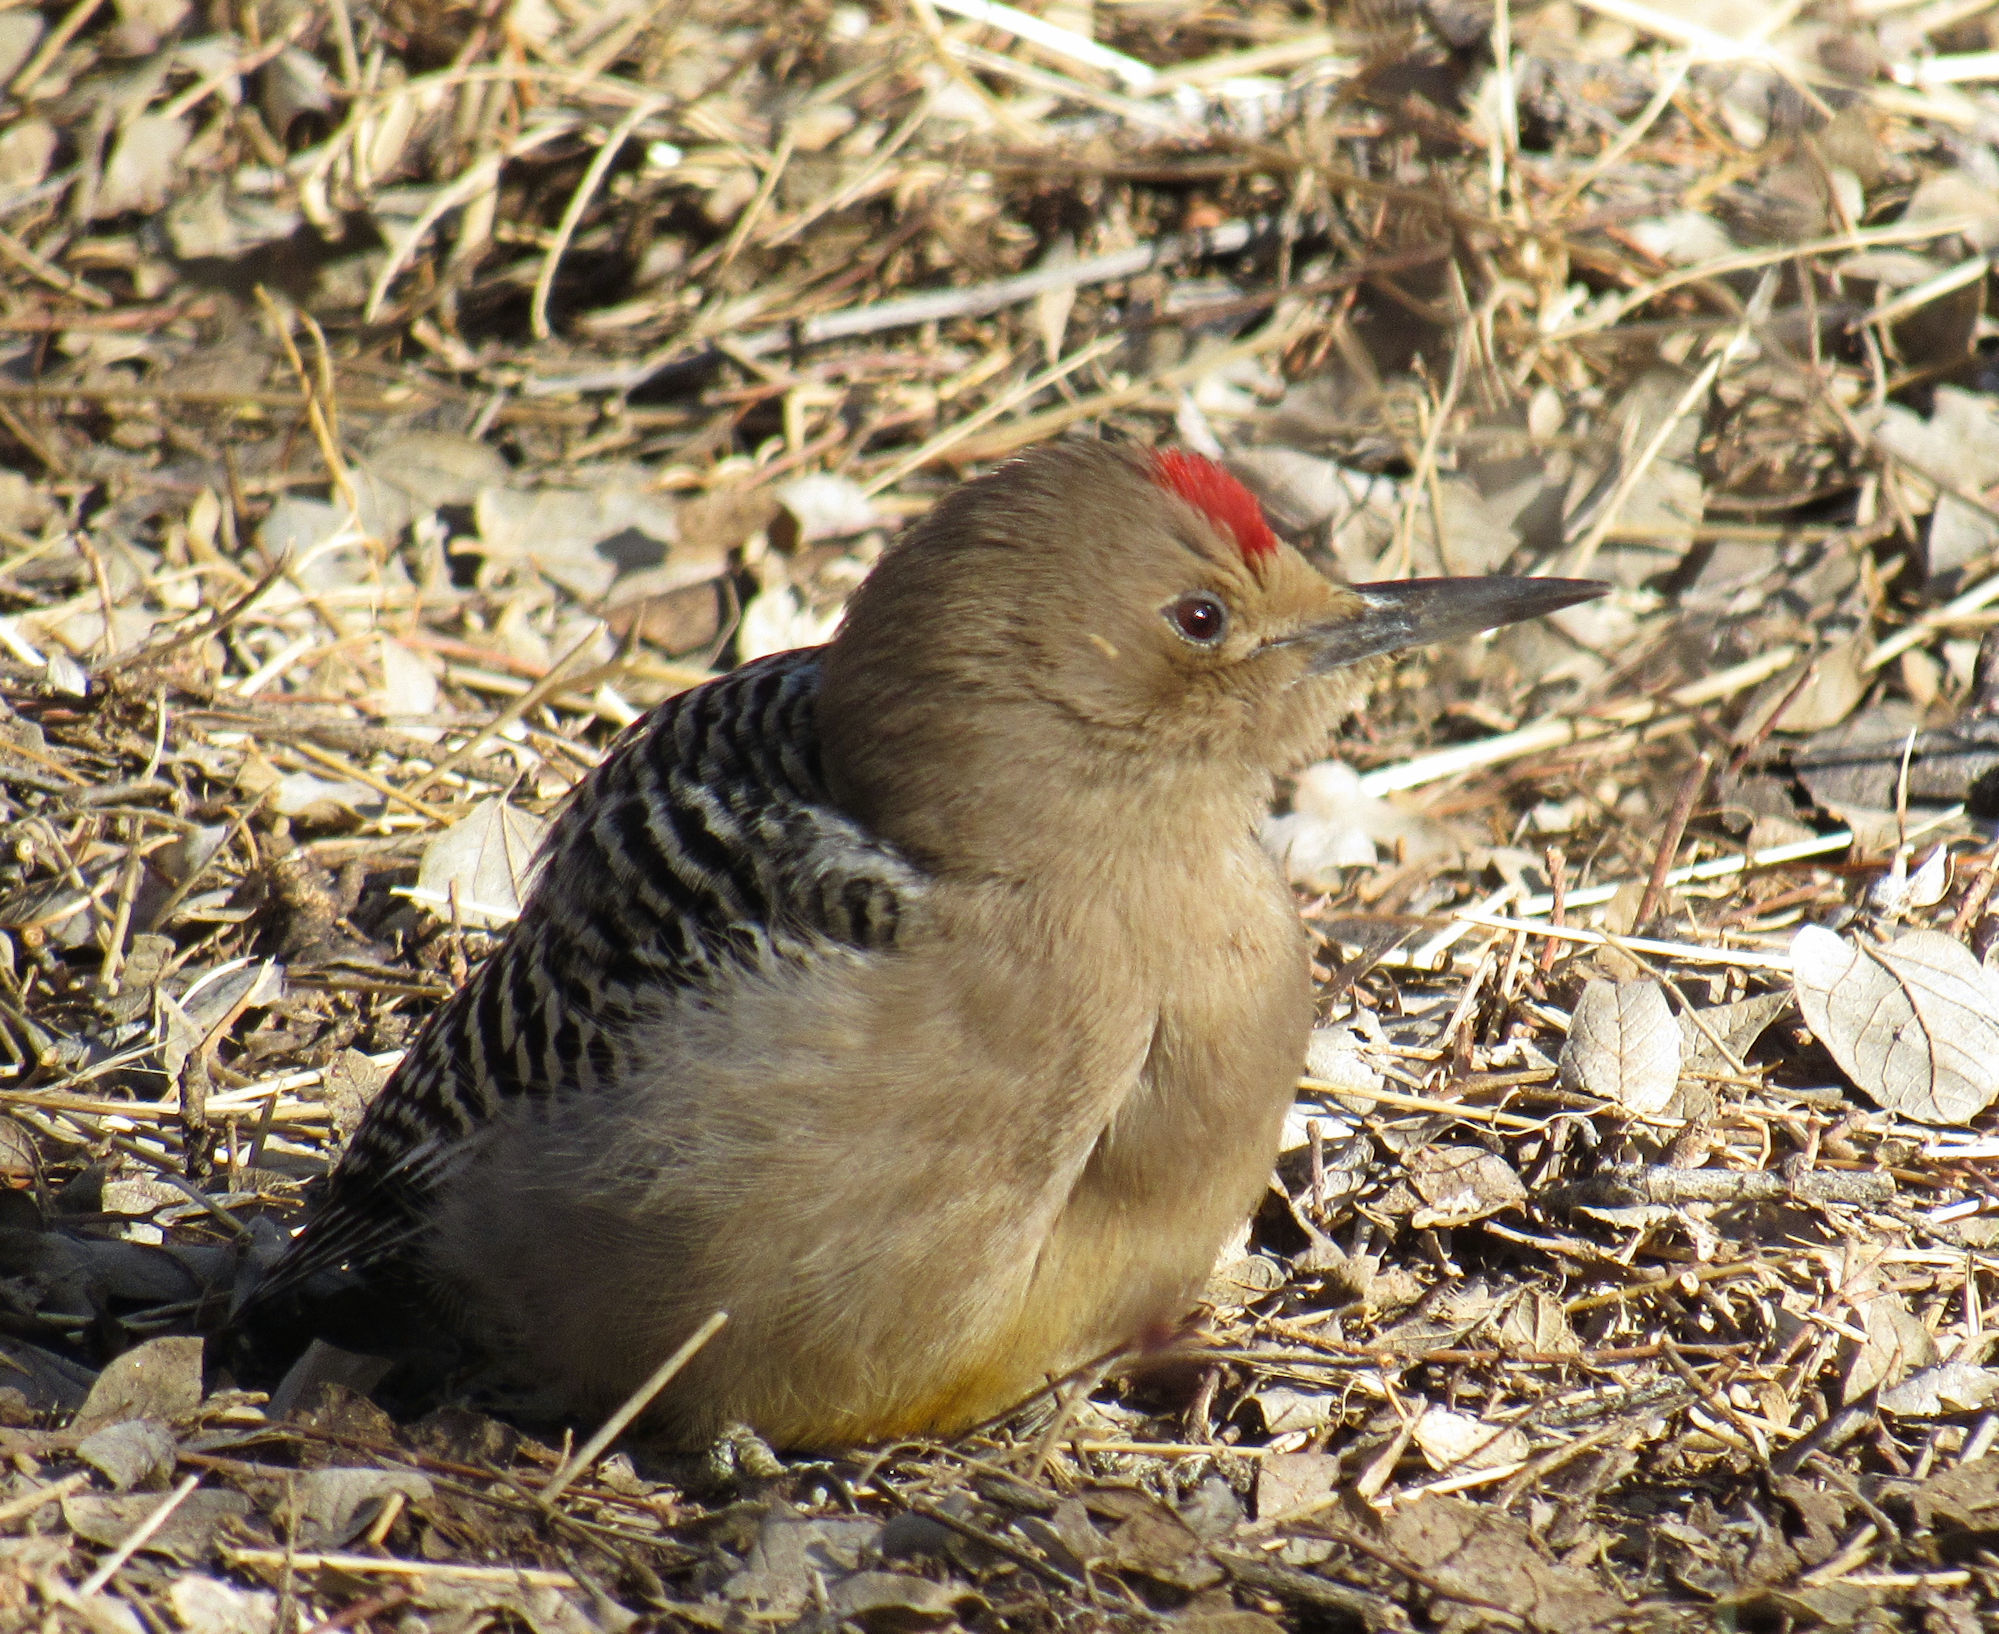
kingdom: Animalia
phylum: Chordata
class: Aves
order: Piciformes
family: Picidae
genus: Melanerpes
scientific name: Melanerpes uropygialis
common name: Gila woodpecker
